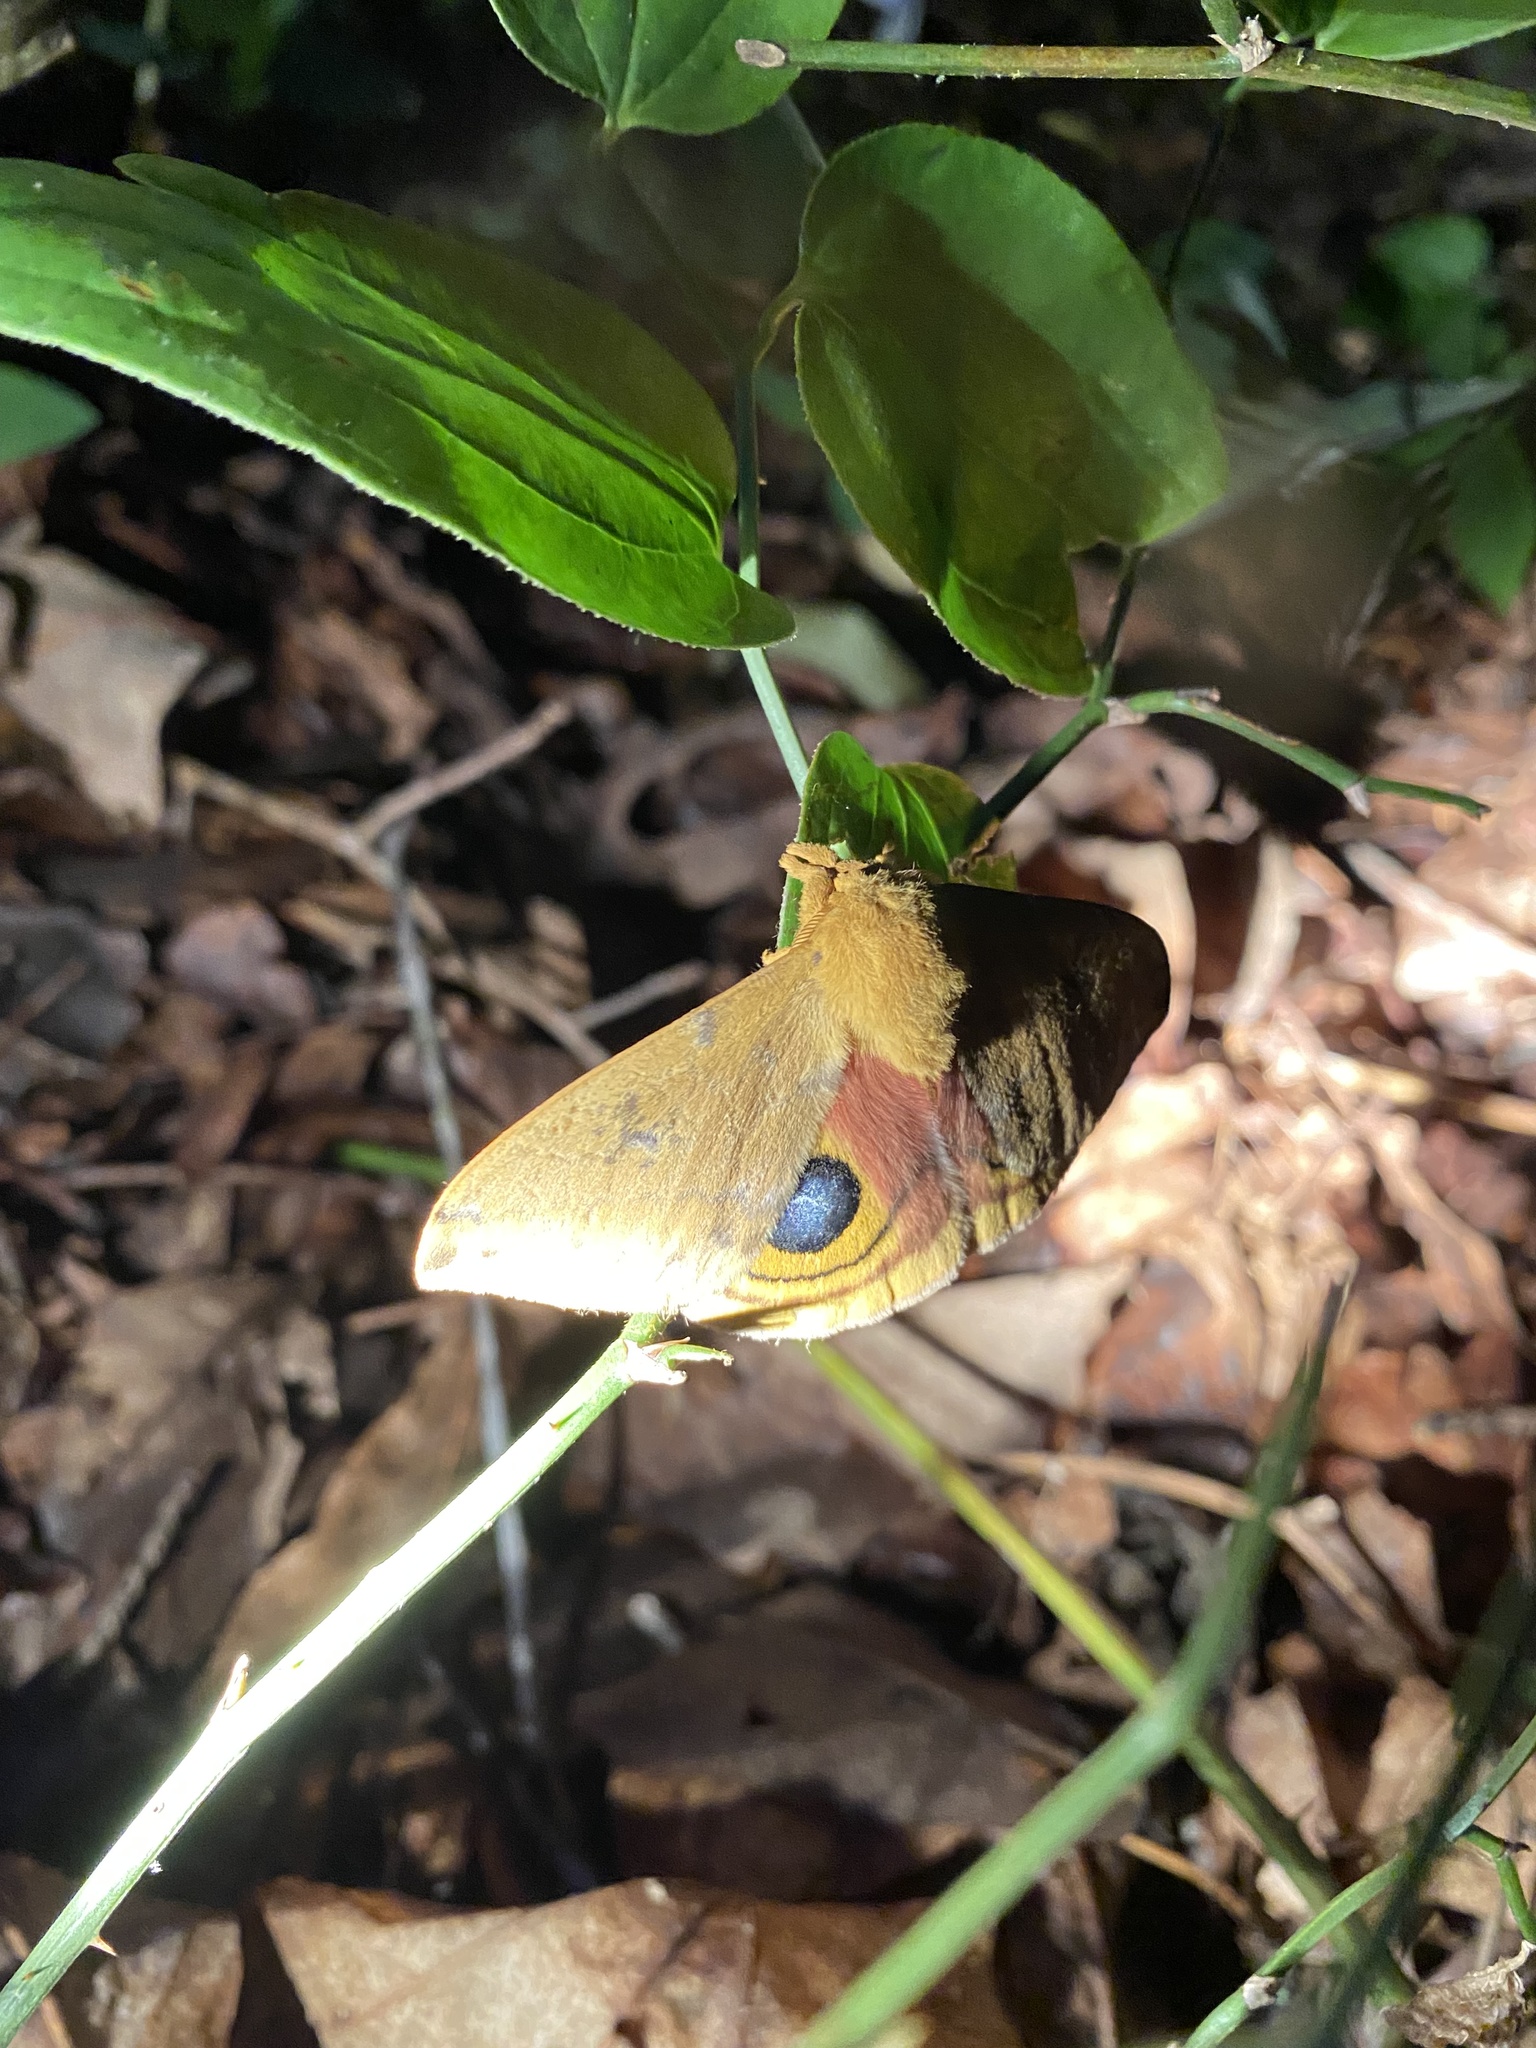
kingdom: Animalia
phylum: Arthropoda
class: Insecta
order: Lepidoptera
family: Saturniidae
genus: Automeris
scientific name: Automeris io
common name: Io moth
